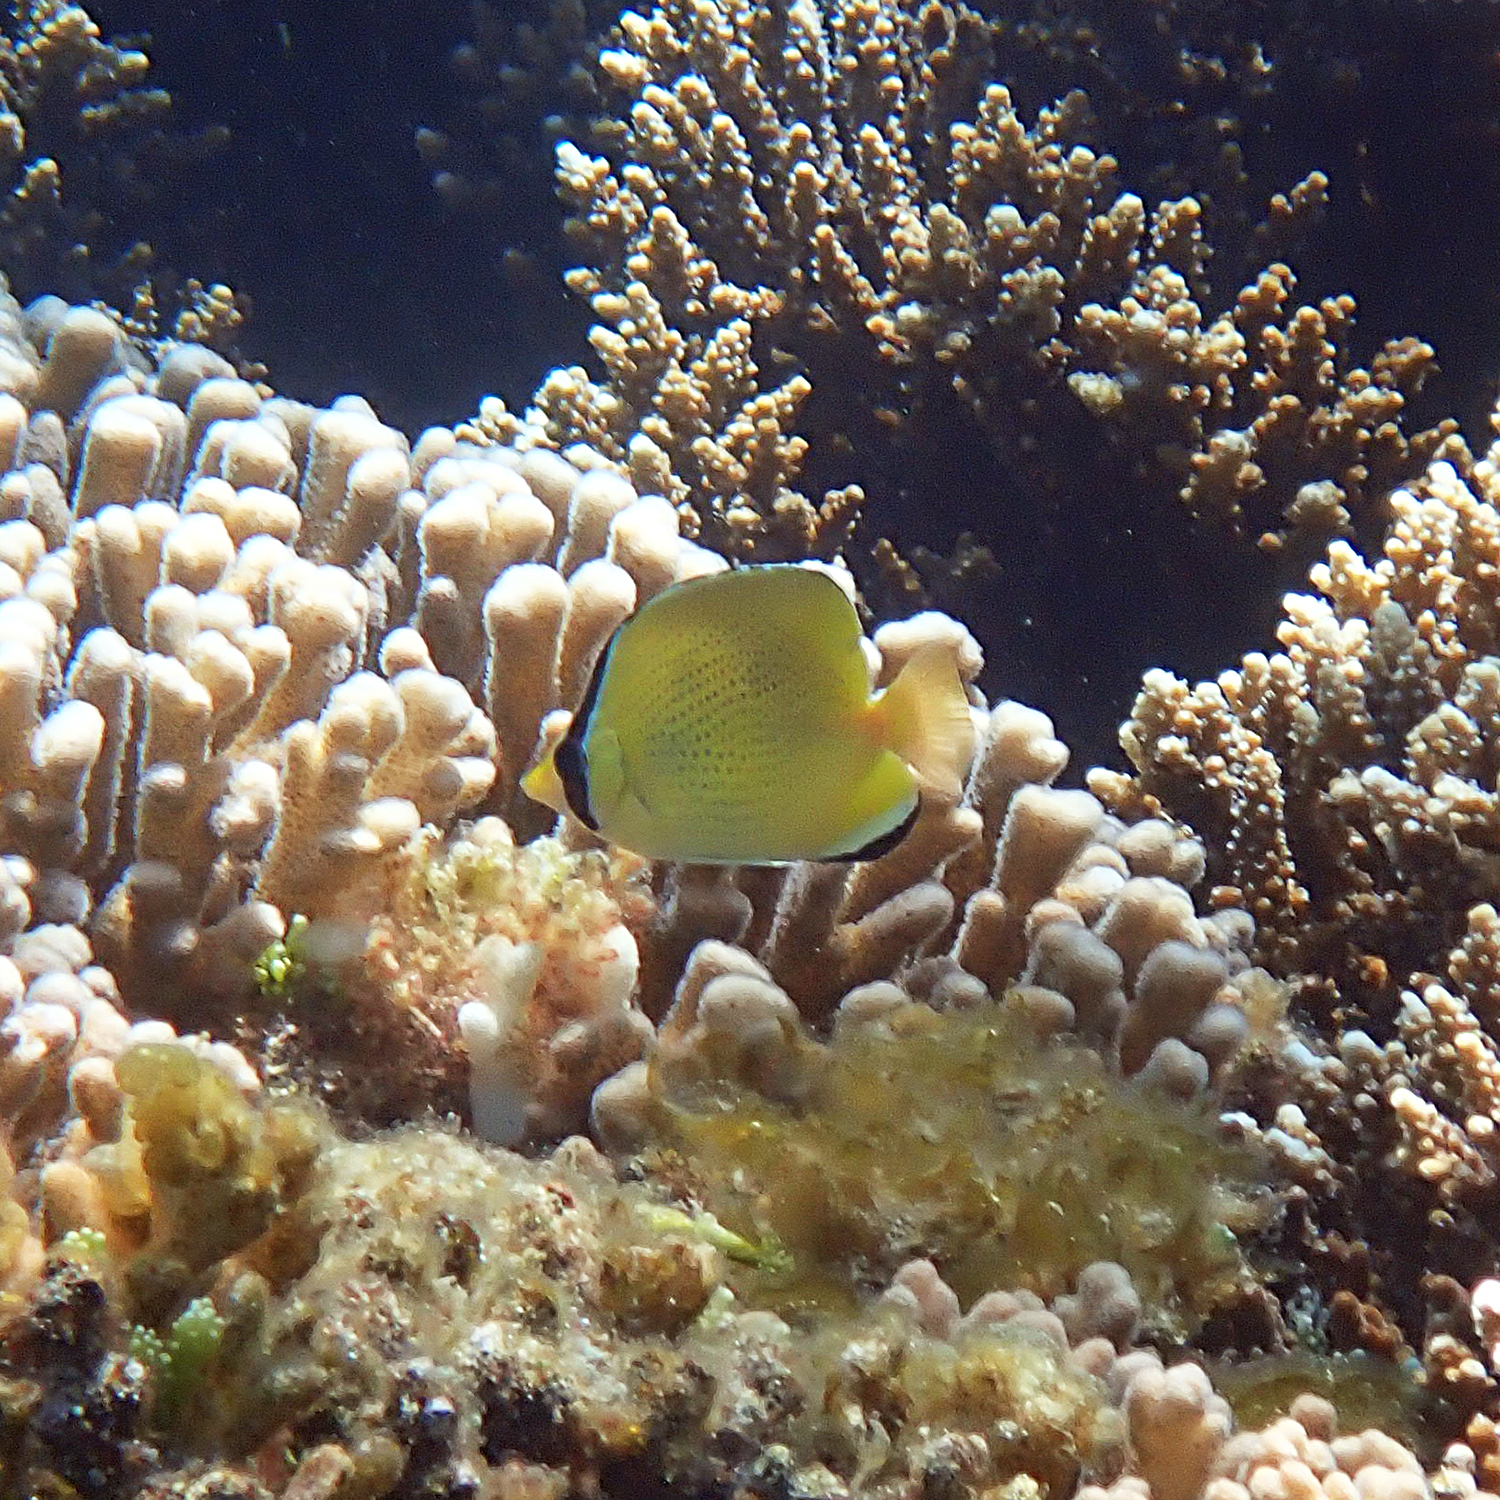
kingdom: Animalia
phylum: Chordata
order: Perciformes
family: Chaetodontidae
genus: Chaetodon
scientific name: Chaetodon citrinellus
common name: Speckled butterflyfish
